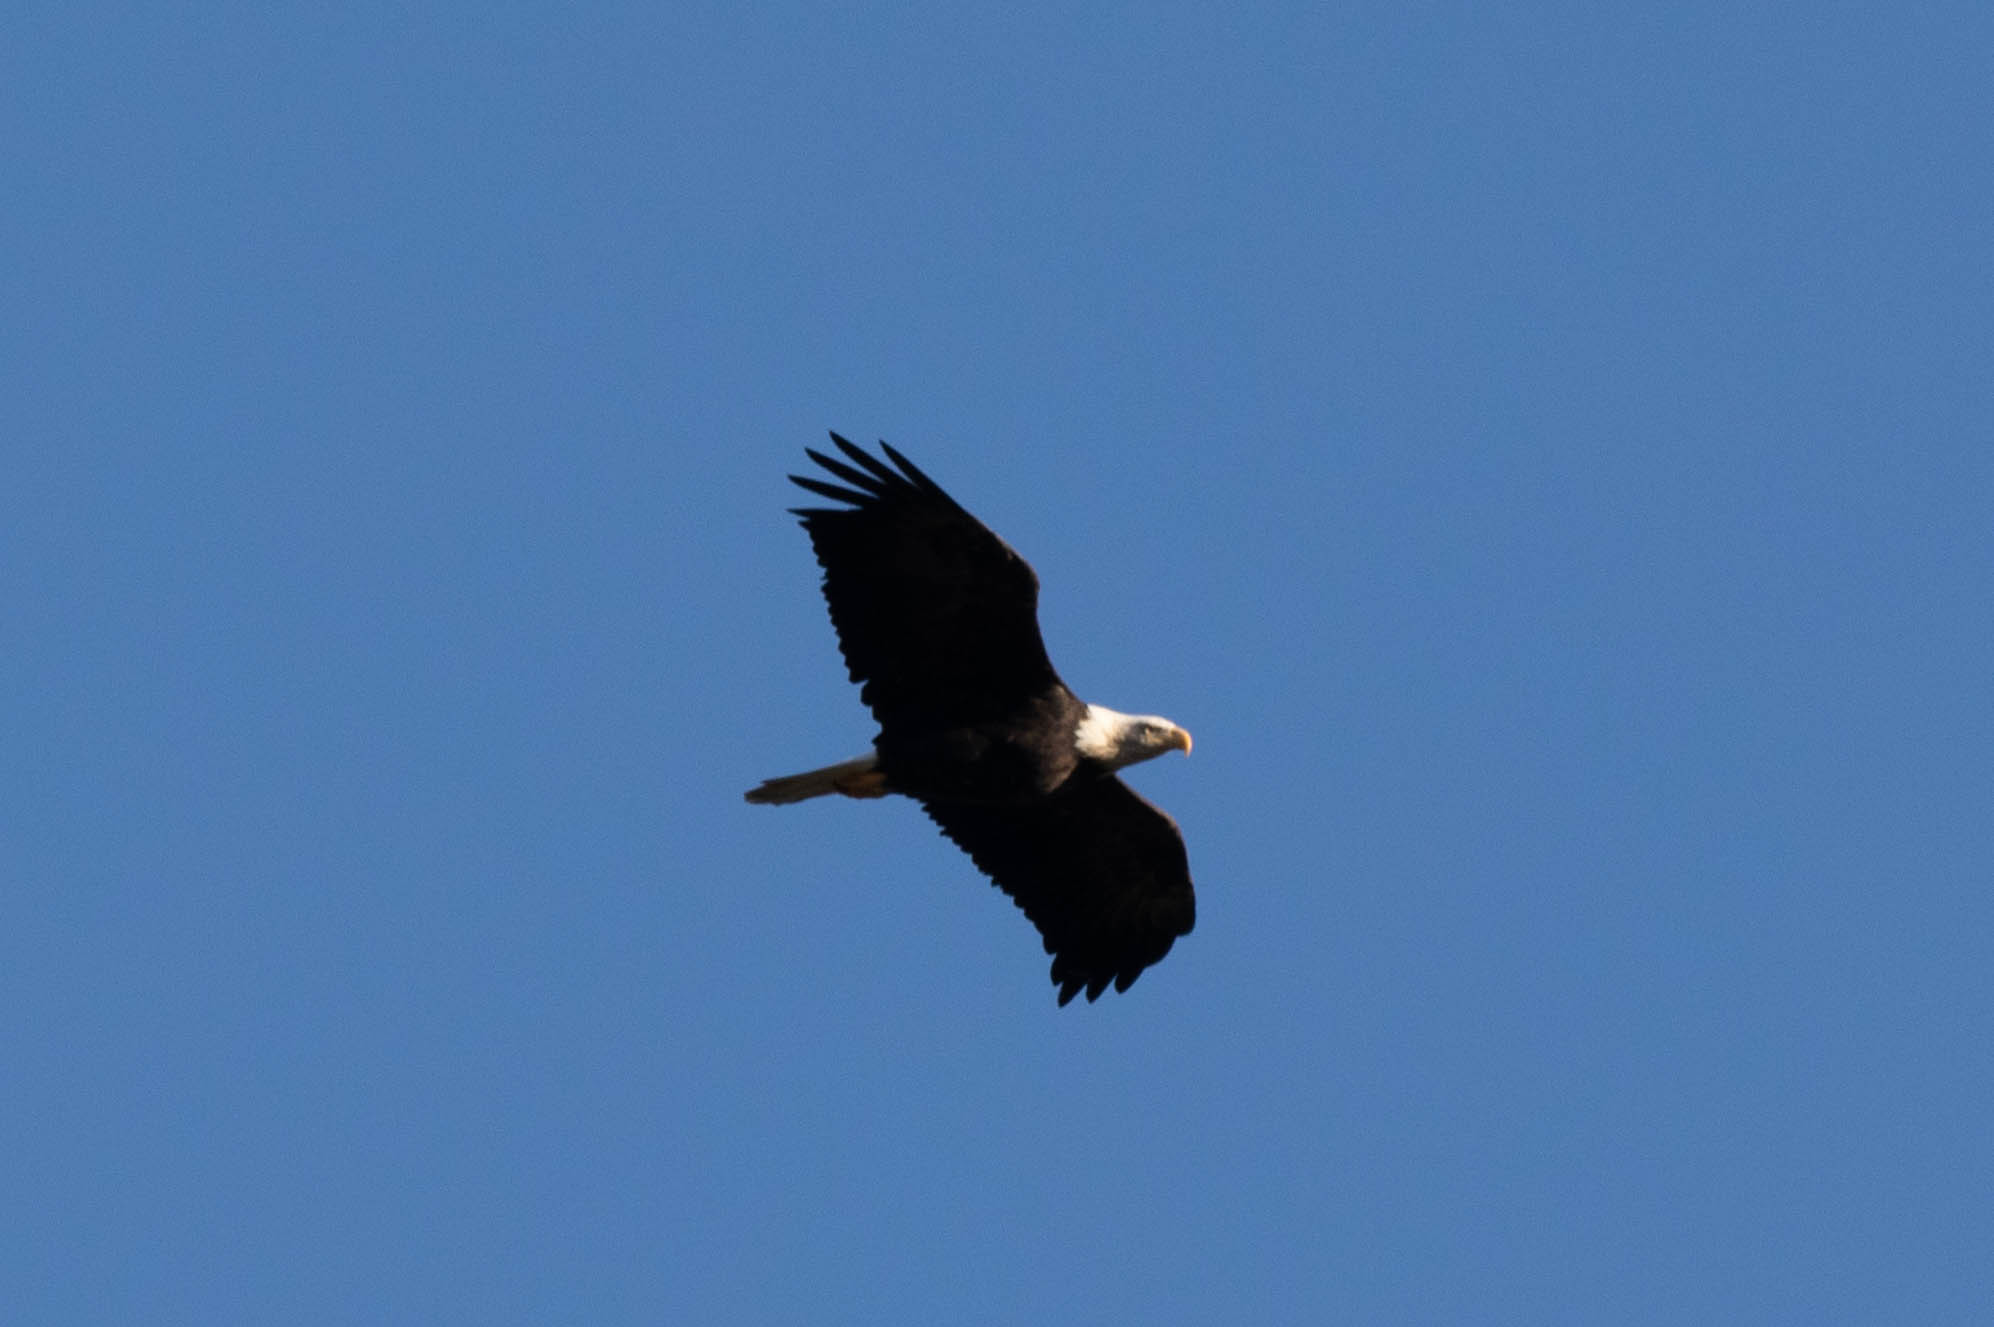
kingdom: Animalia
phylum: Chordata
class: Aves
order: Accipitriformes
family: Accipitridae
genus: Haliaeetus
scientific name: Haliaeetus leucocephalus
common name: Bald eagle
